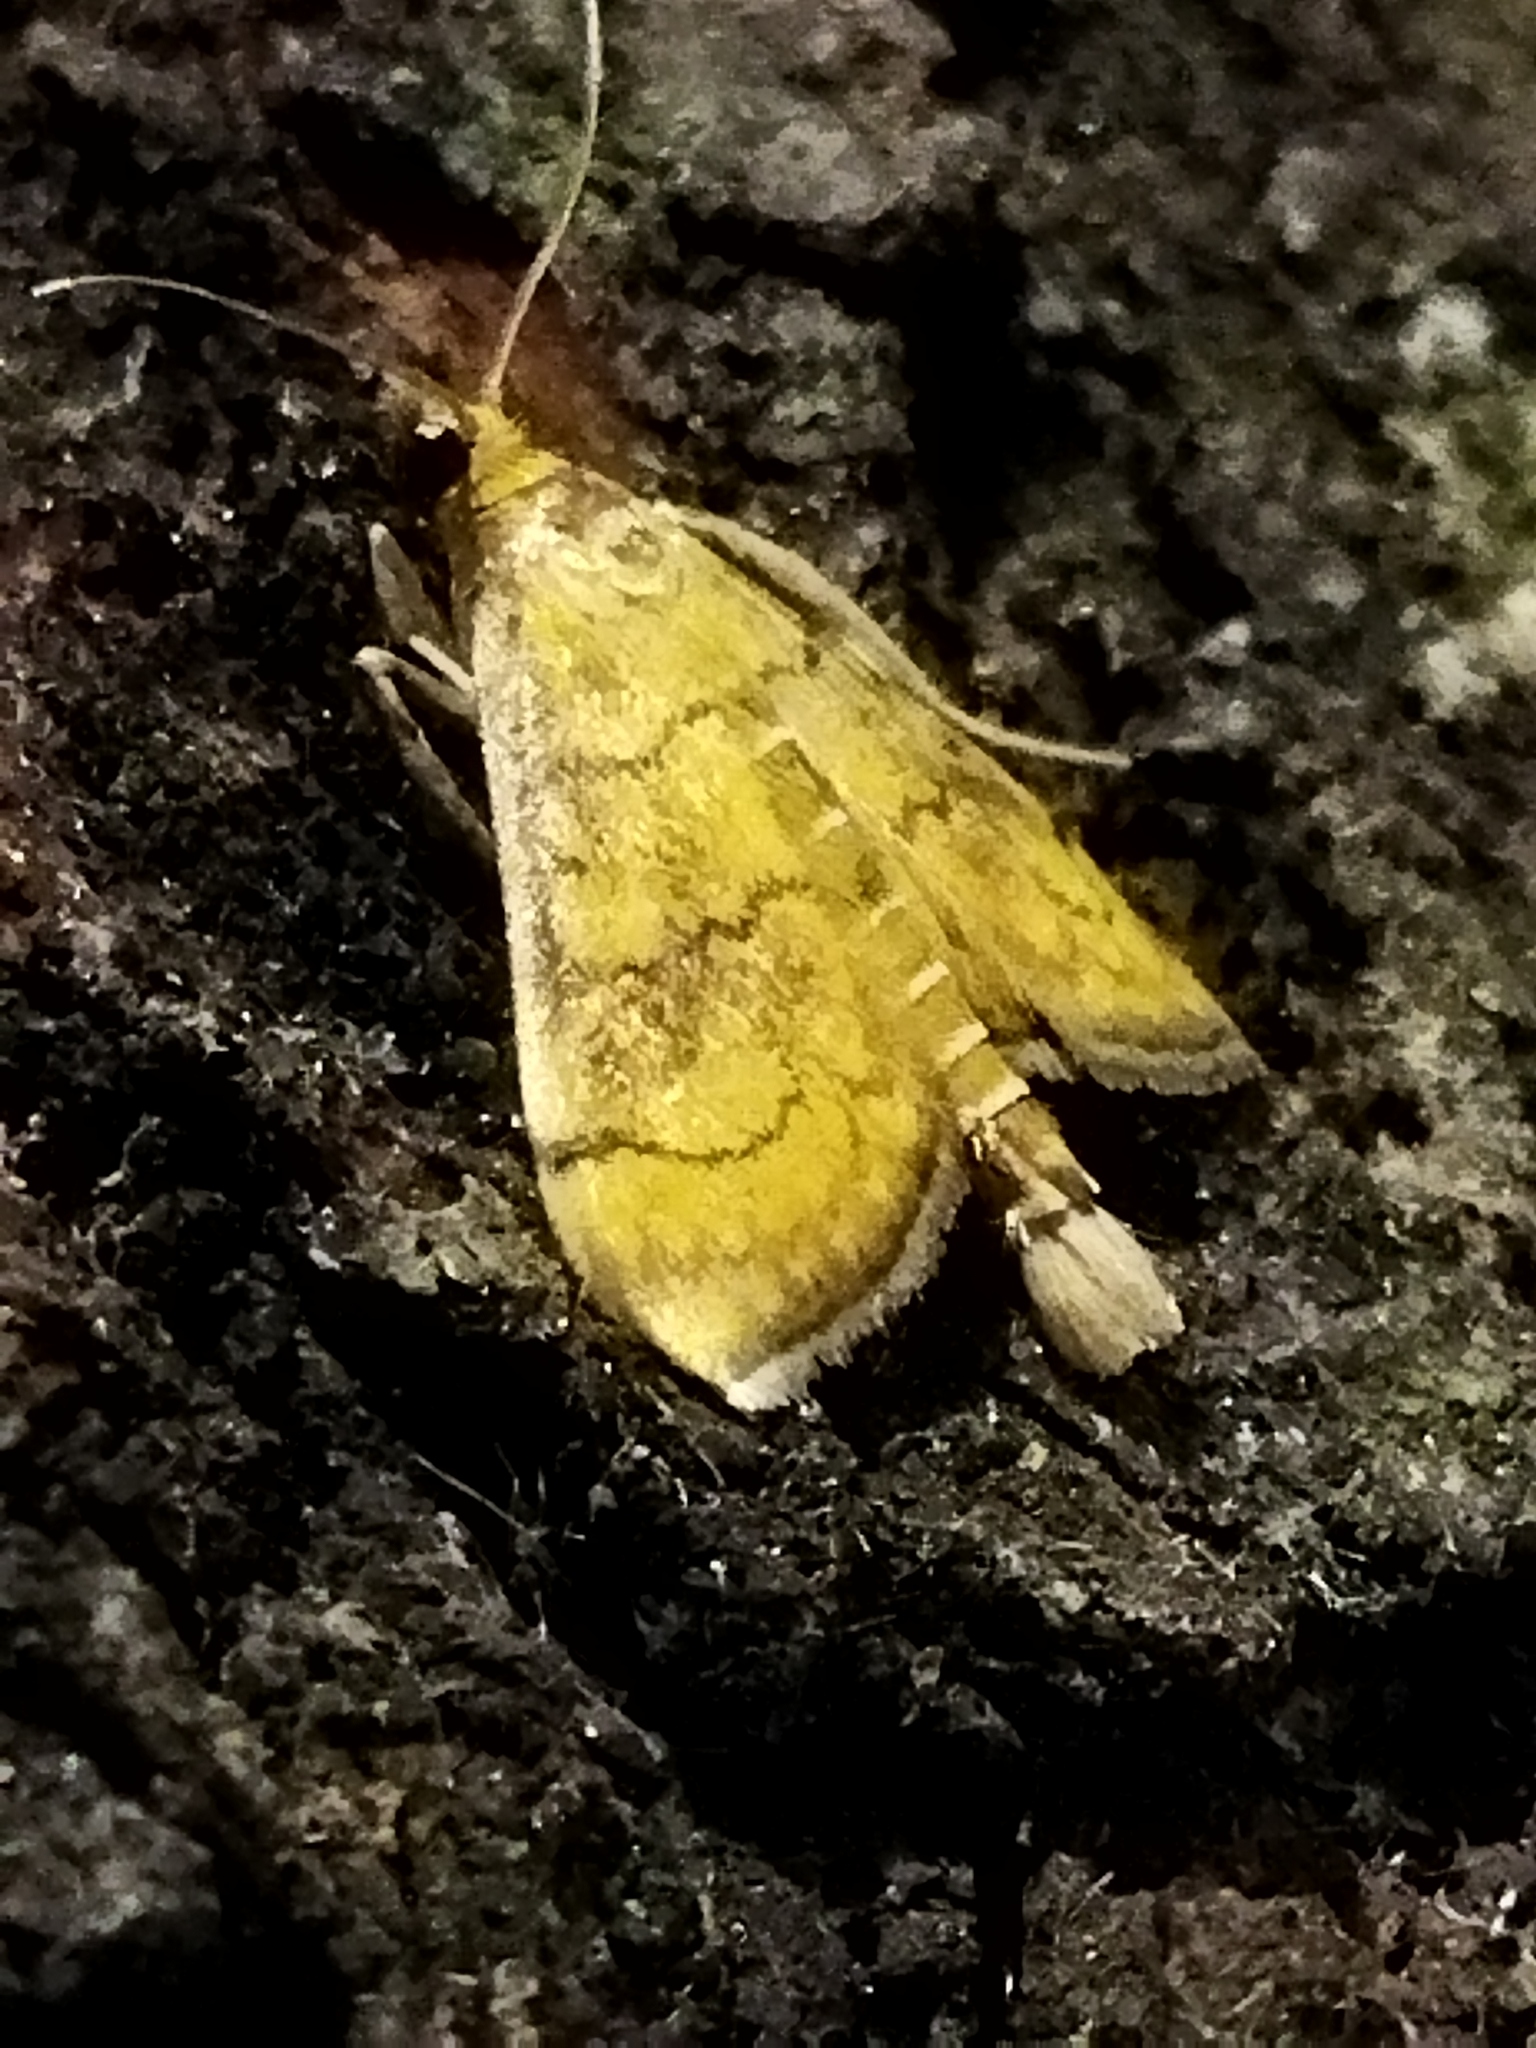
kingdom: Animalia
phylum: Arthropoda
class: Insecta
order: Lepidoptera
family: Crambidae
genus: Anania
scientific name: Anania verbascalis
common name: Golden pearl
